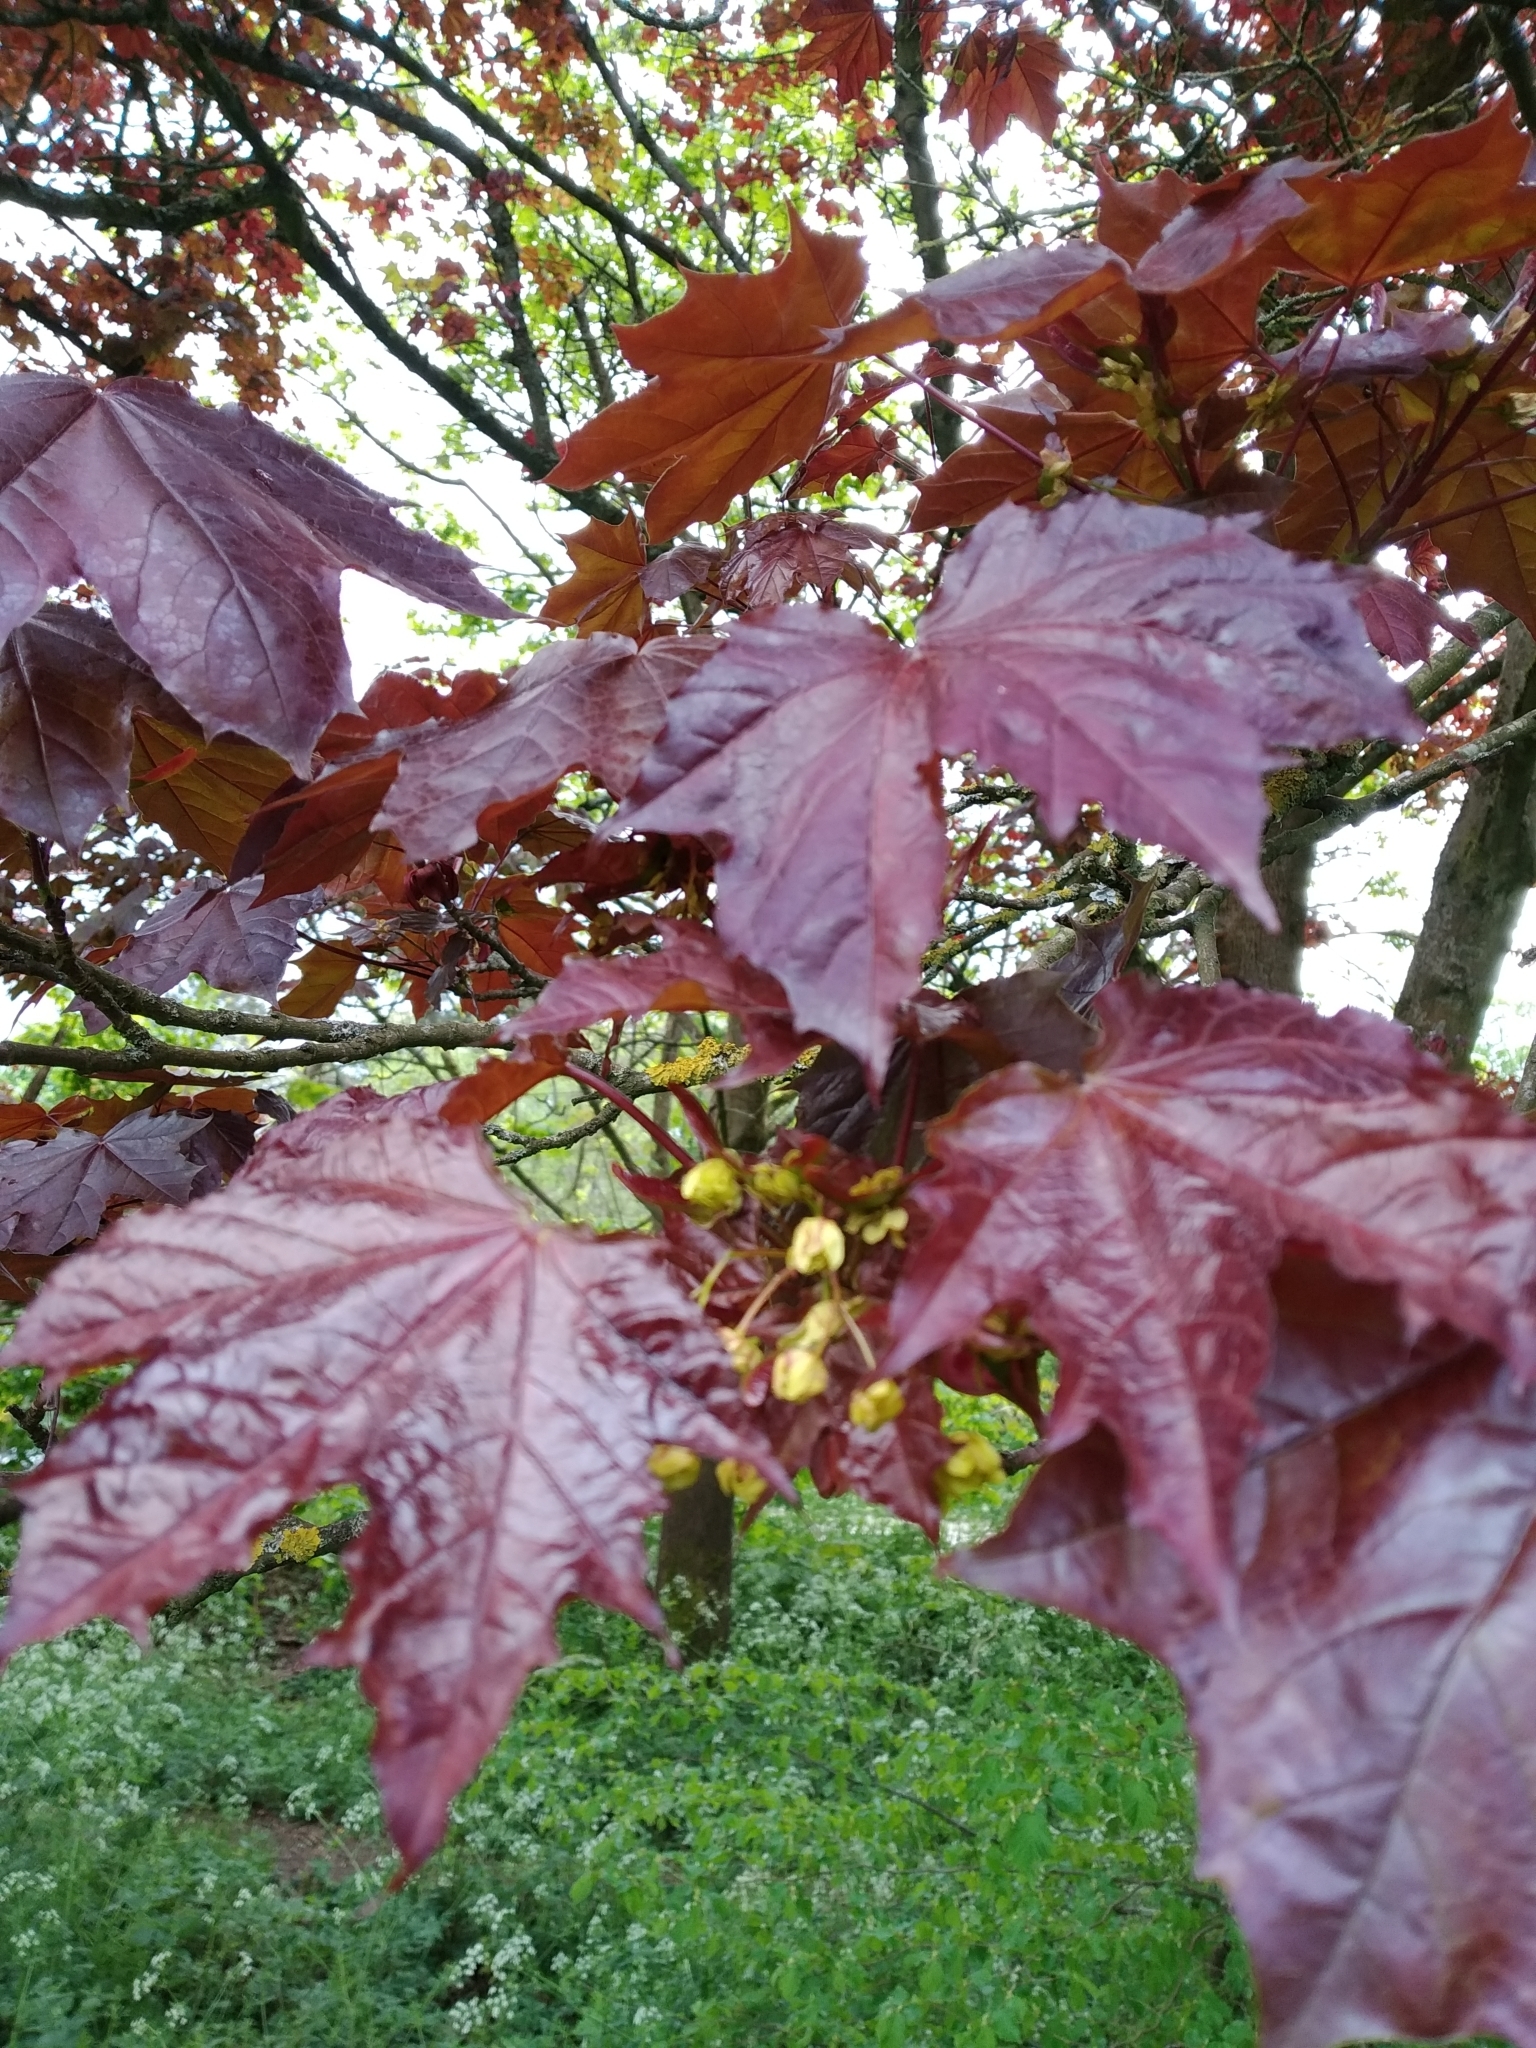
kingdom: Plantae
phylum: Tracheophyta
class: Magnoliopsida
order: Sapindales
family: Sapindaceae
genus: Acer
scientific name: Acer platanoides
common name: Norway maple
